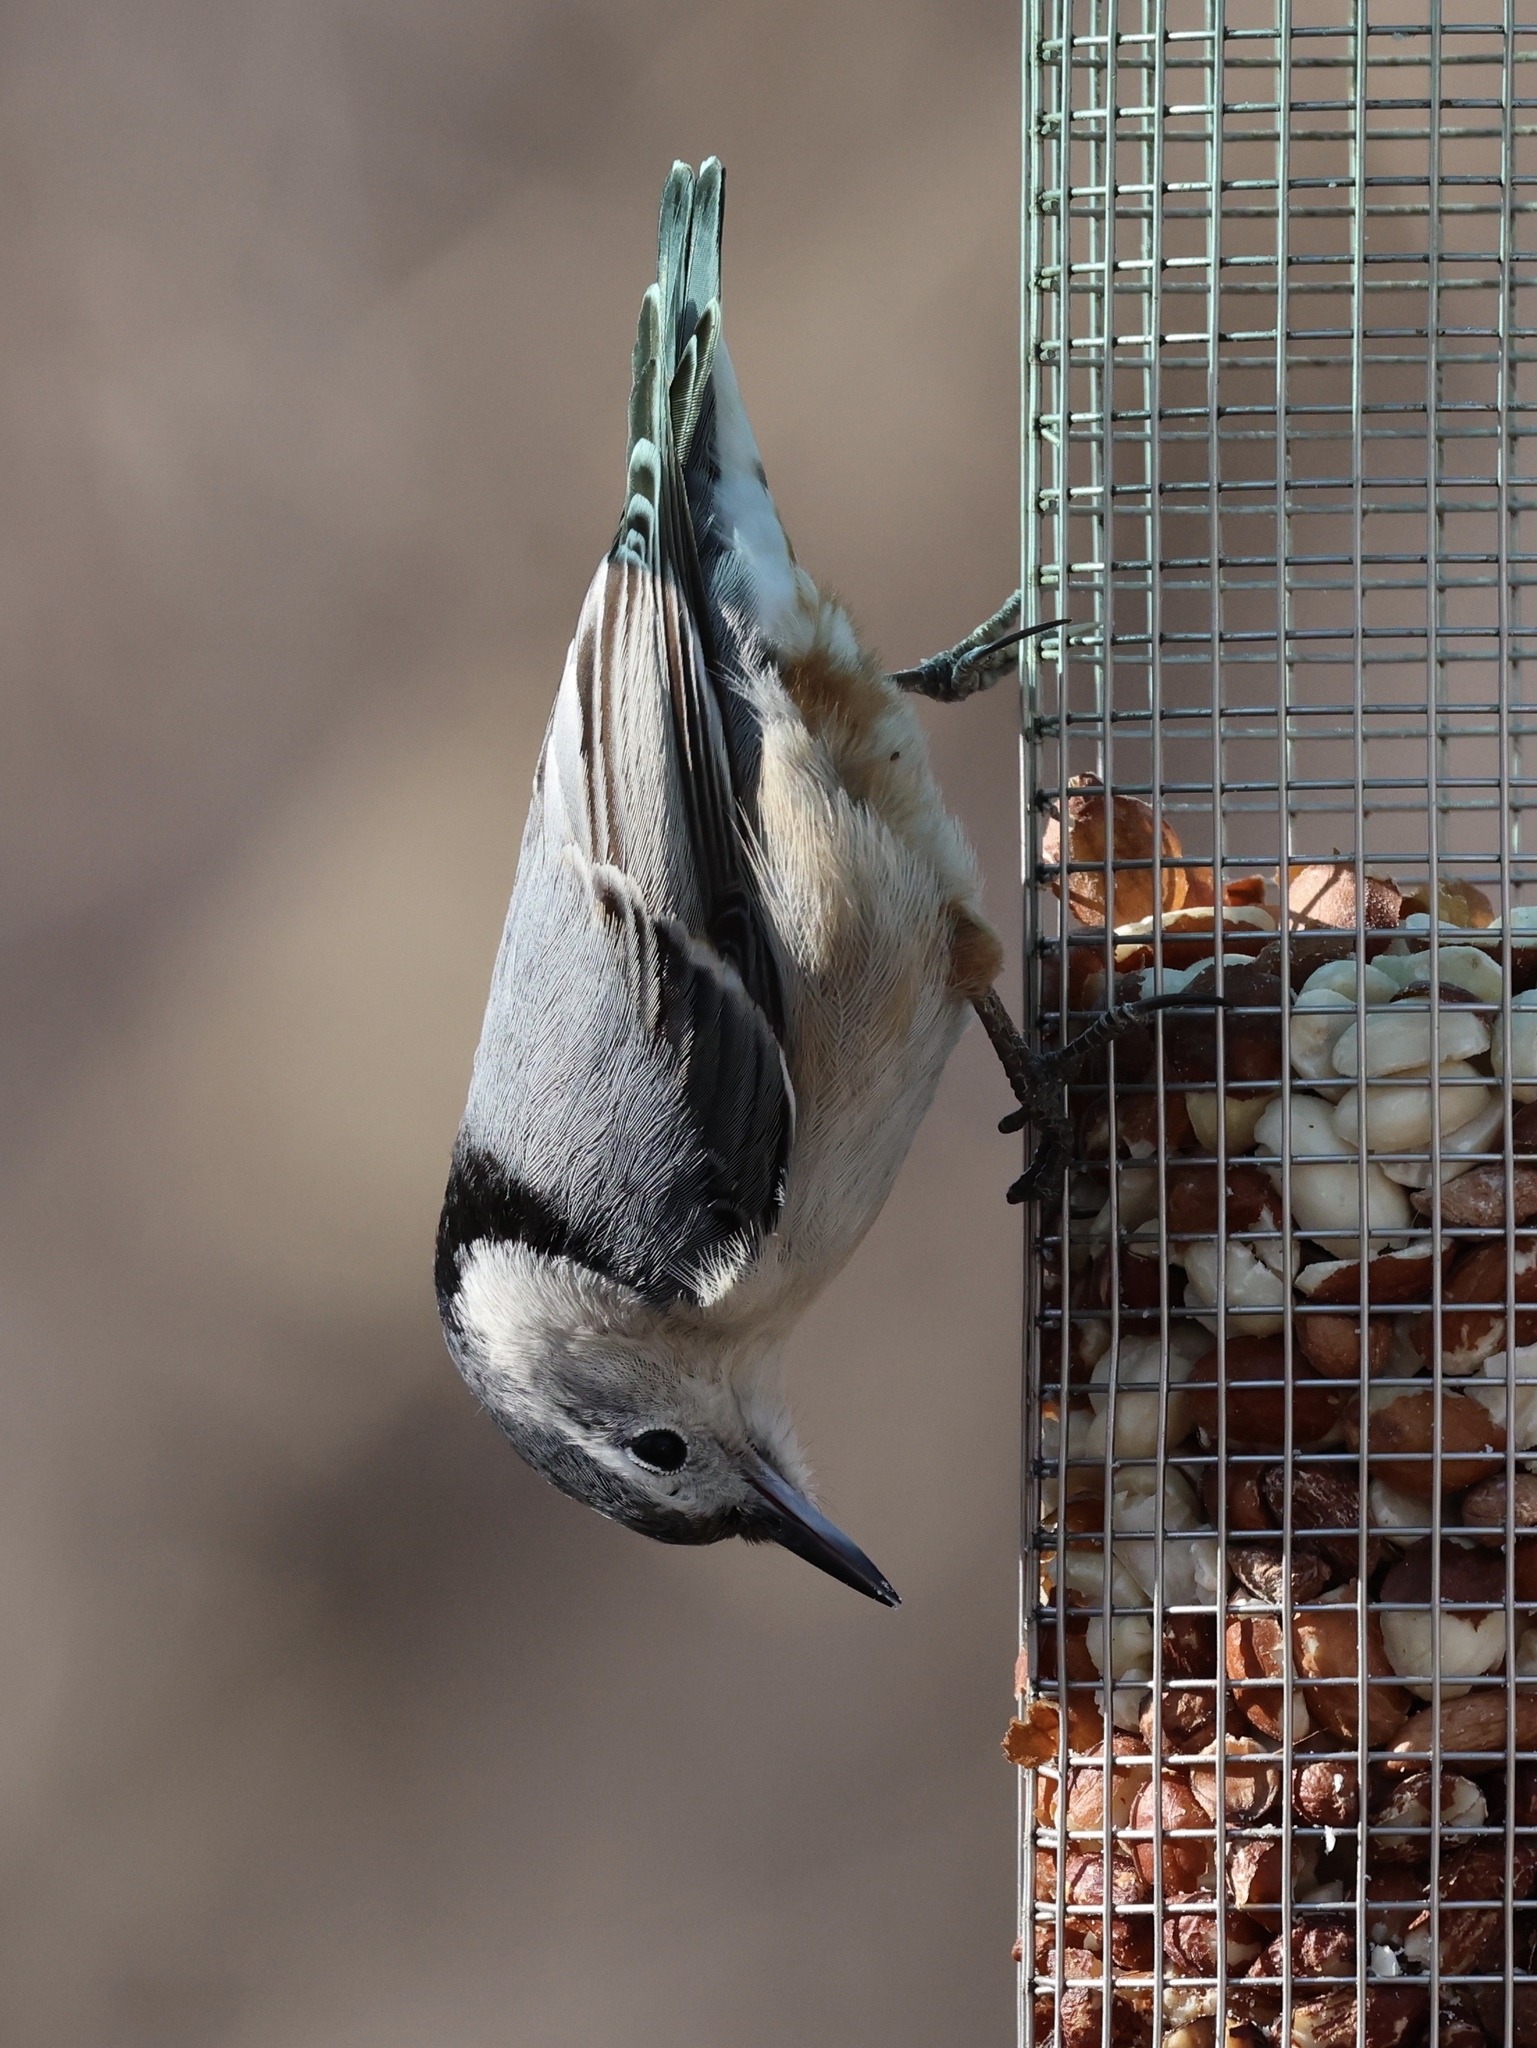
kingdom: Animalia
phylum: Chordata
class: Aves
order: Passeriformes
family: Sittidae
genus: Sitta
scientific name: Sitta carolinensis
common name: White-breasted nuthatch
